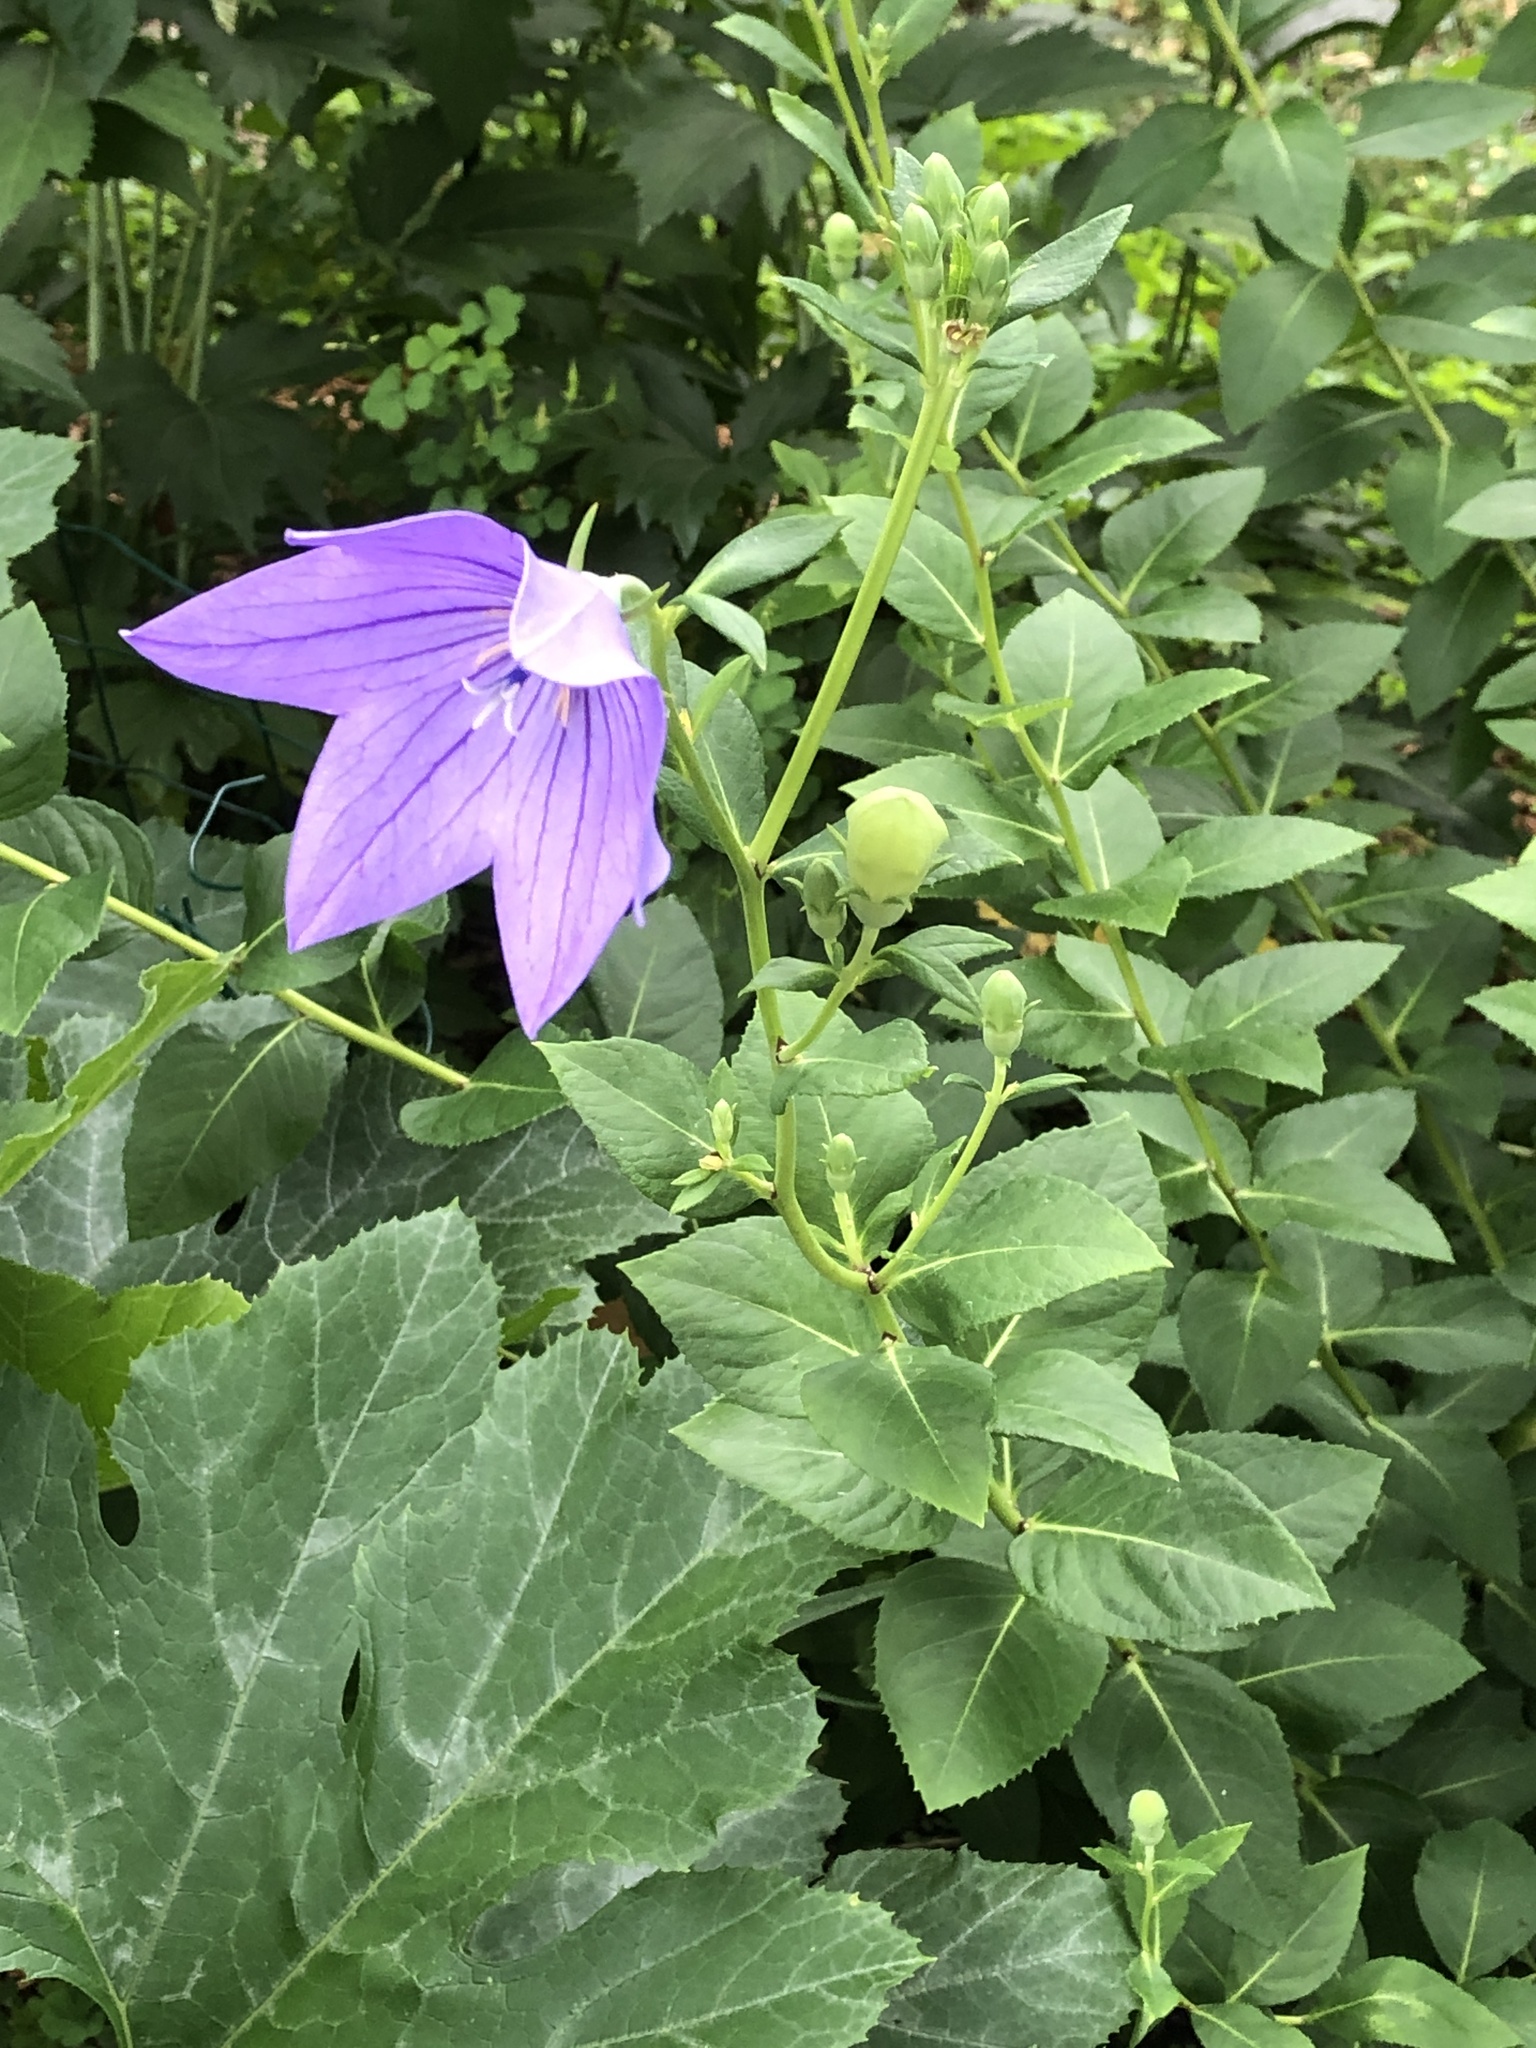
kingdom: Plantae
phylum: Tracheophyta
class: Magnoliopsida
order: Asterales
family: Campanulaceae
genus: Platycodon
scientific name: Platycodon grandiflorus
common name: Balloon-flower
